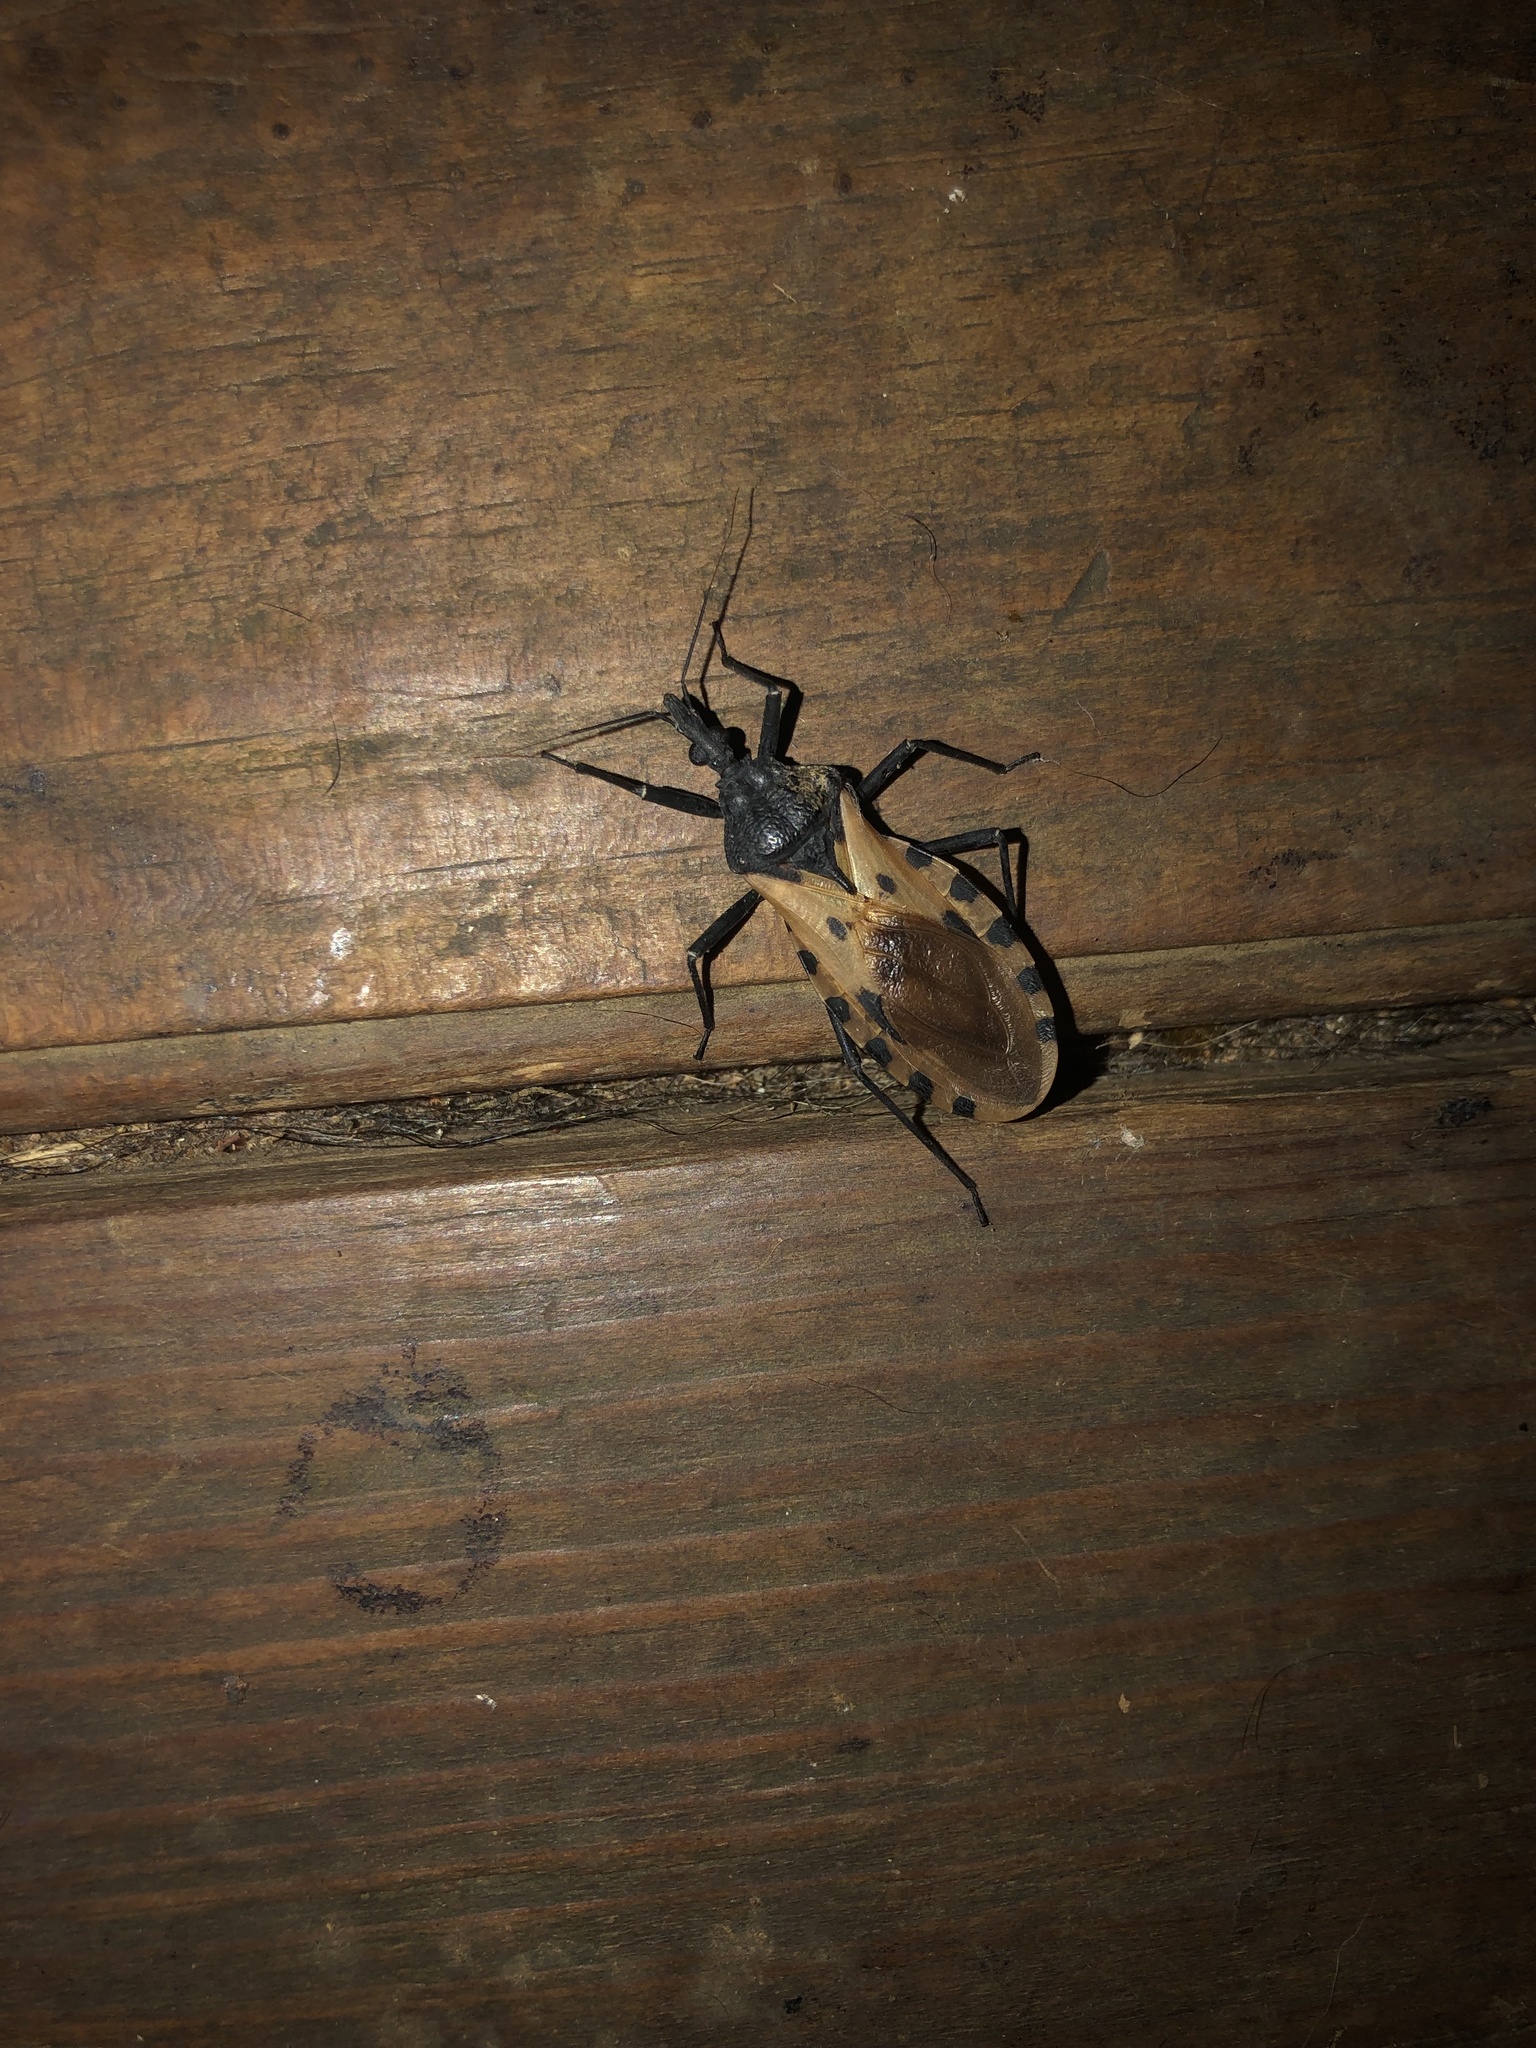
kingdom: Animalia
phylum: Arthropoda
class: Insecta
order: Hemiptera
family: Reduviidae
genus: Meccus
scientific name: Meccus dimidiatus
